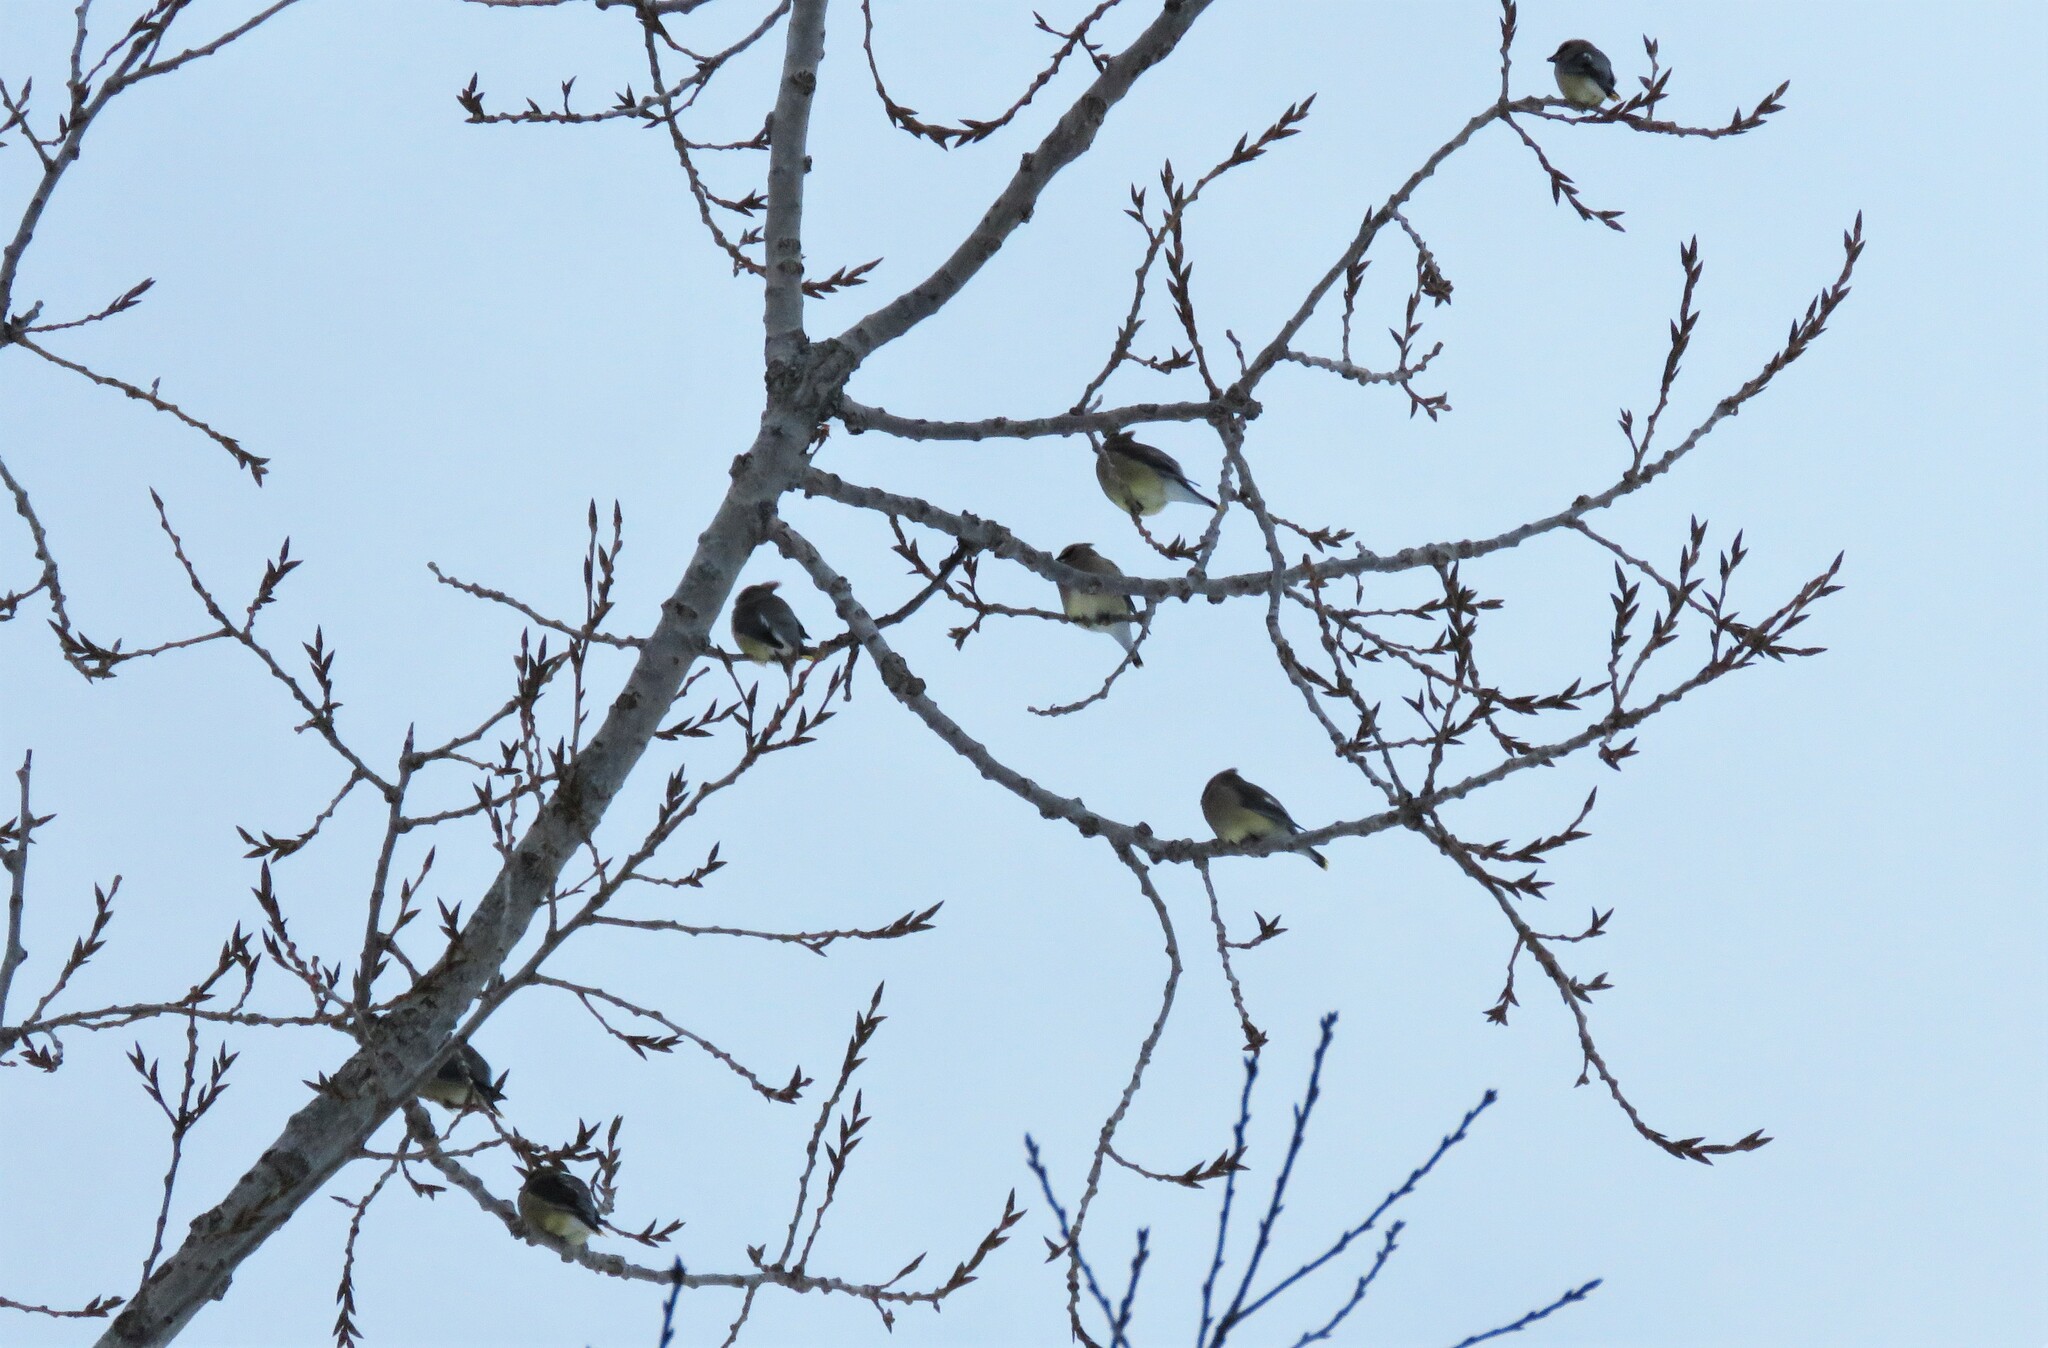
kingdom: Animalia
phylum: Chordata
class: Aves
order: Passeriformes
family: Bombycillidae
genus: Bombycilla
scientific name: Bombycilla cedrorum
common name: Cedar waxwing
